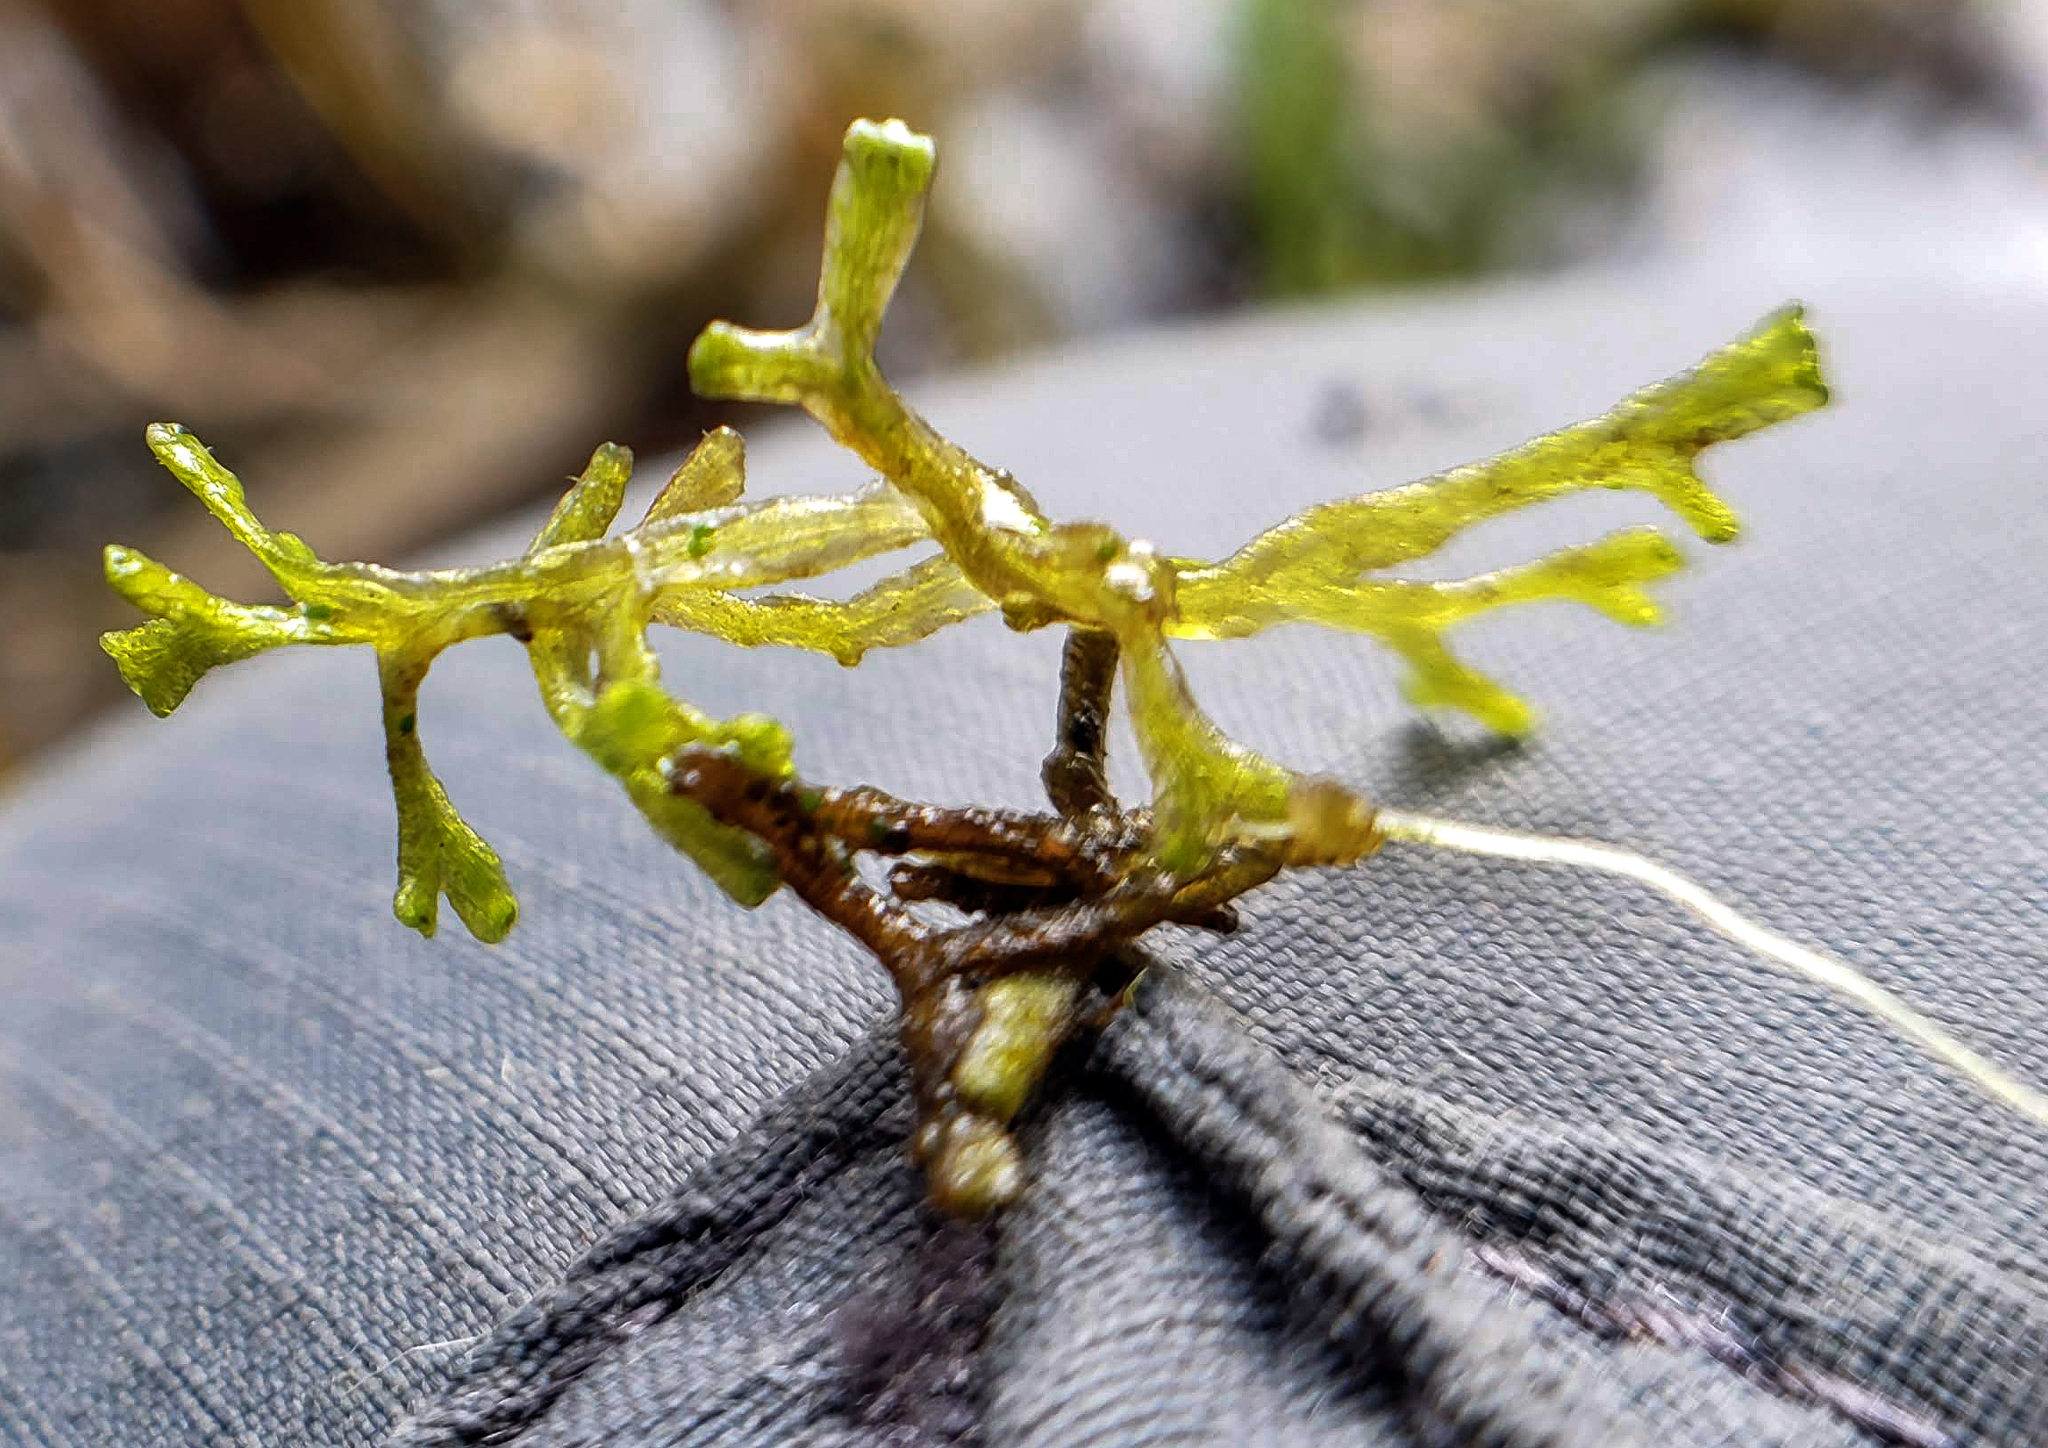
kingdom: Plantae
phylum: Marchantiophyta
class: Marchantiopsida
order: Marchantiales
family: Ricciaceae
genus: Riccia
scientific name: Riccia fluitans
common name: Floating crystalwort
